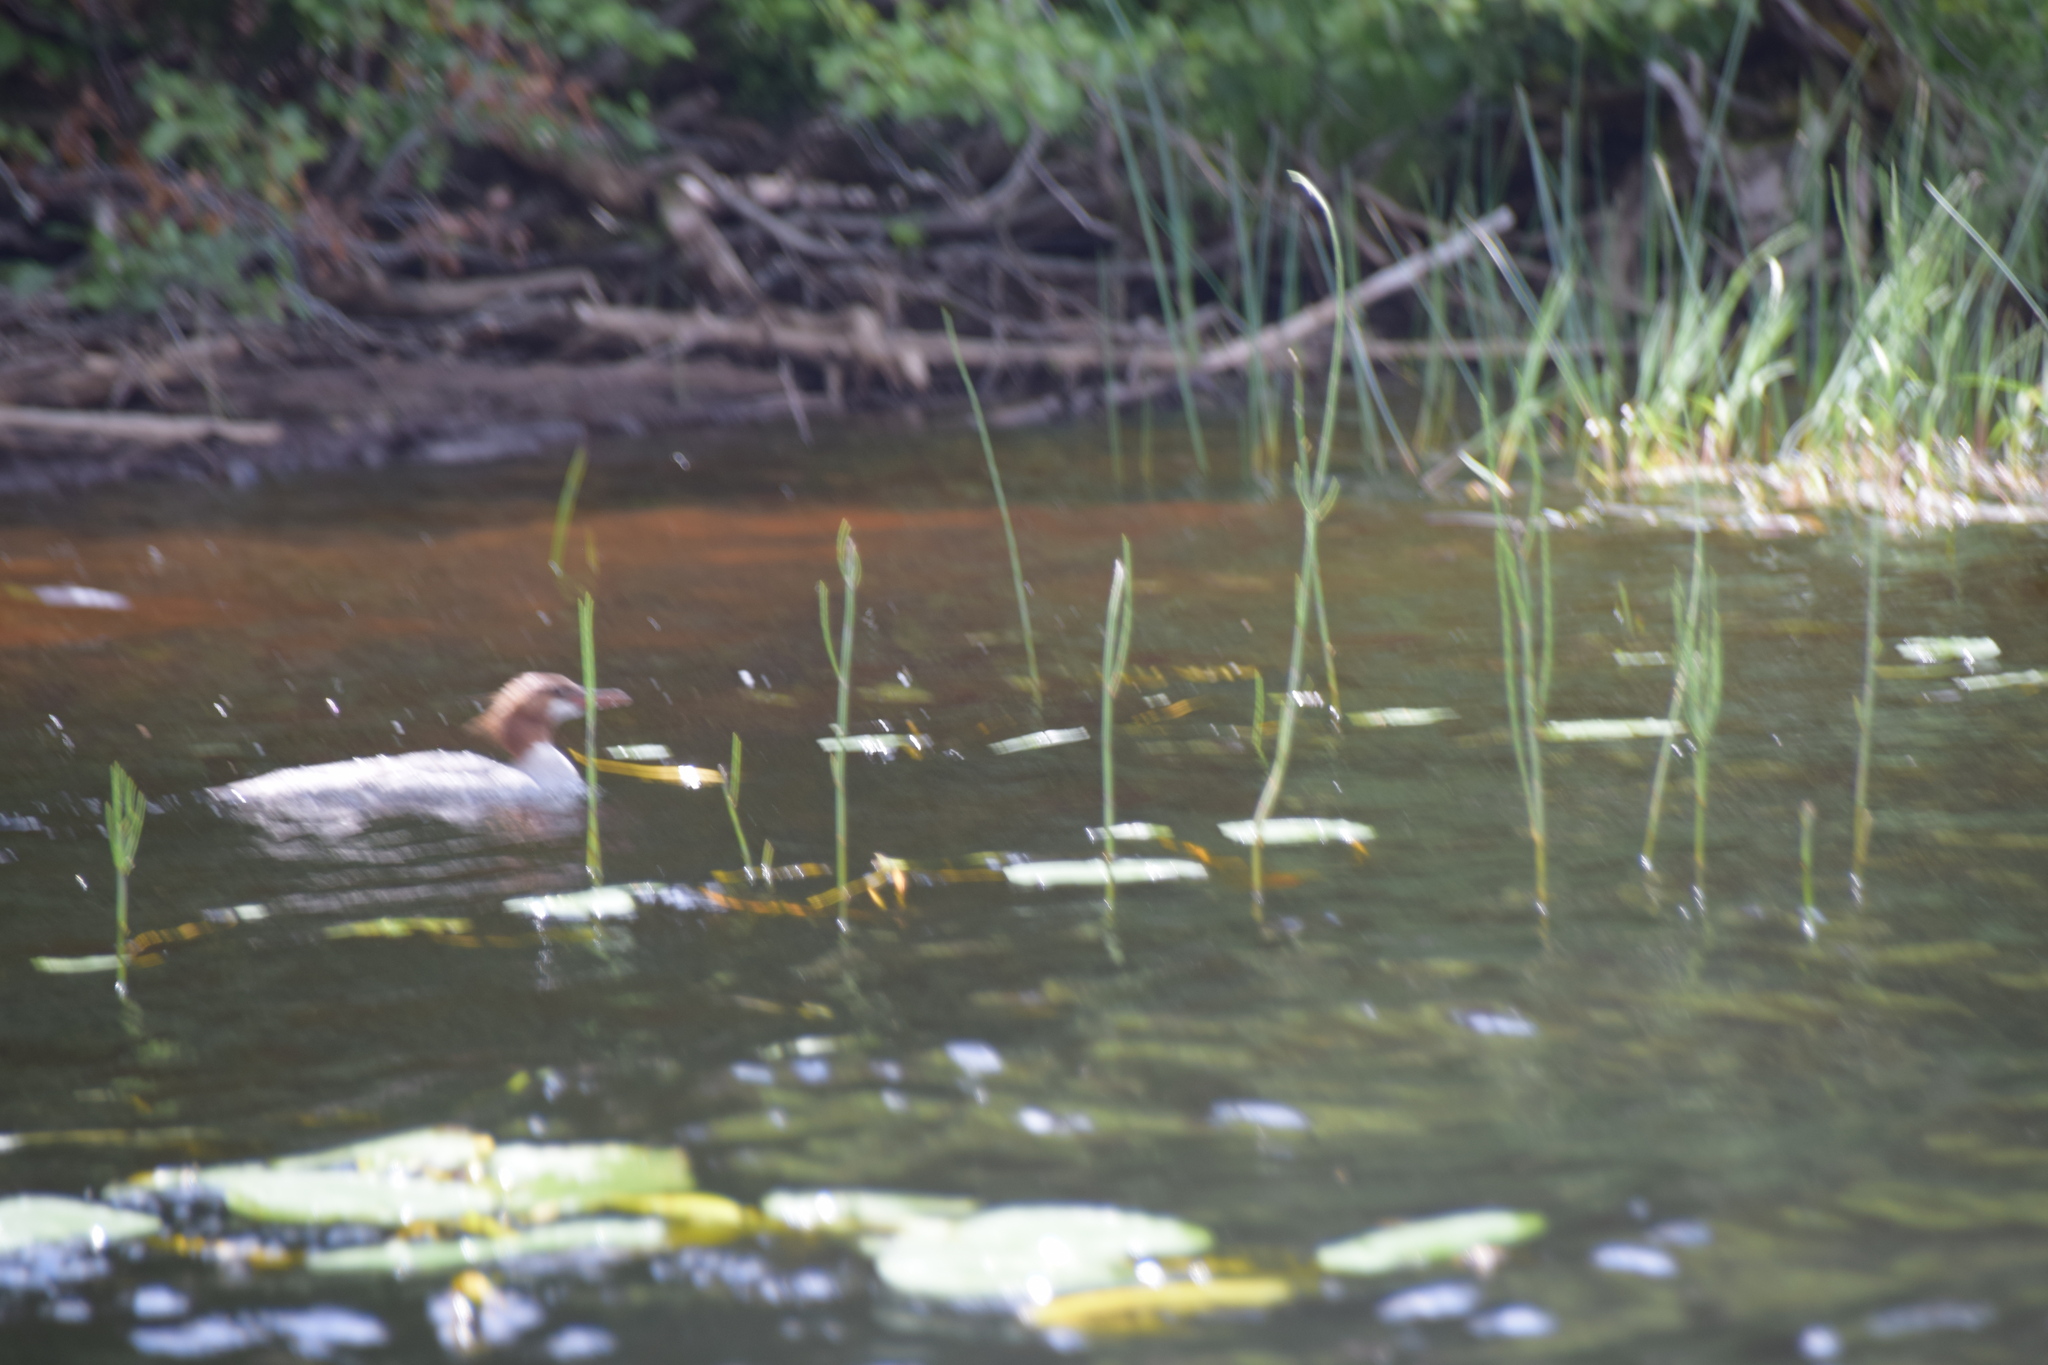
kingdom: Animalia
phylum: Chordata
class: Aves
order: Anseriformes
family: Anatidae
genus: Mergus
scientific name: Mergus merganser
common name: Common merganser
